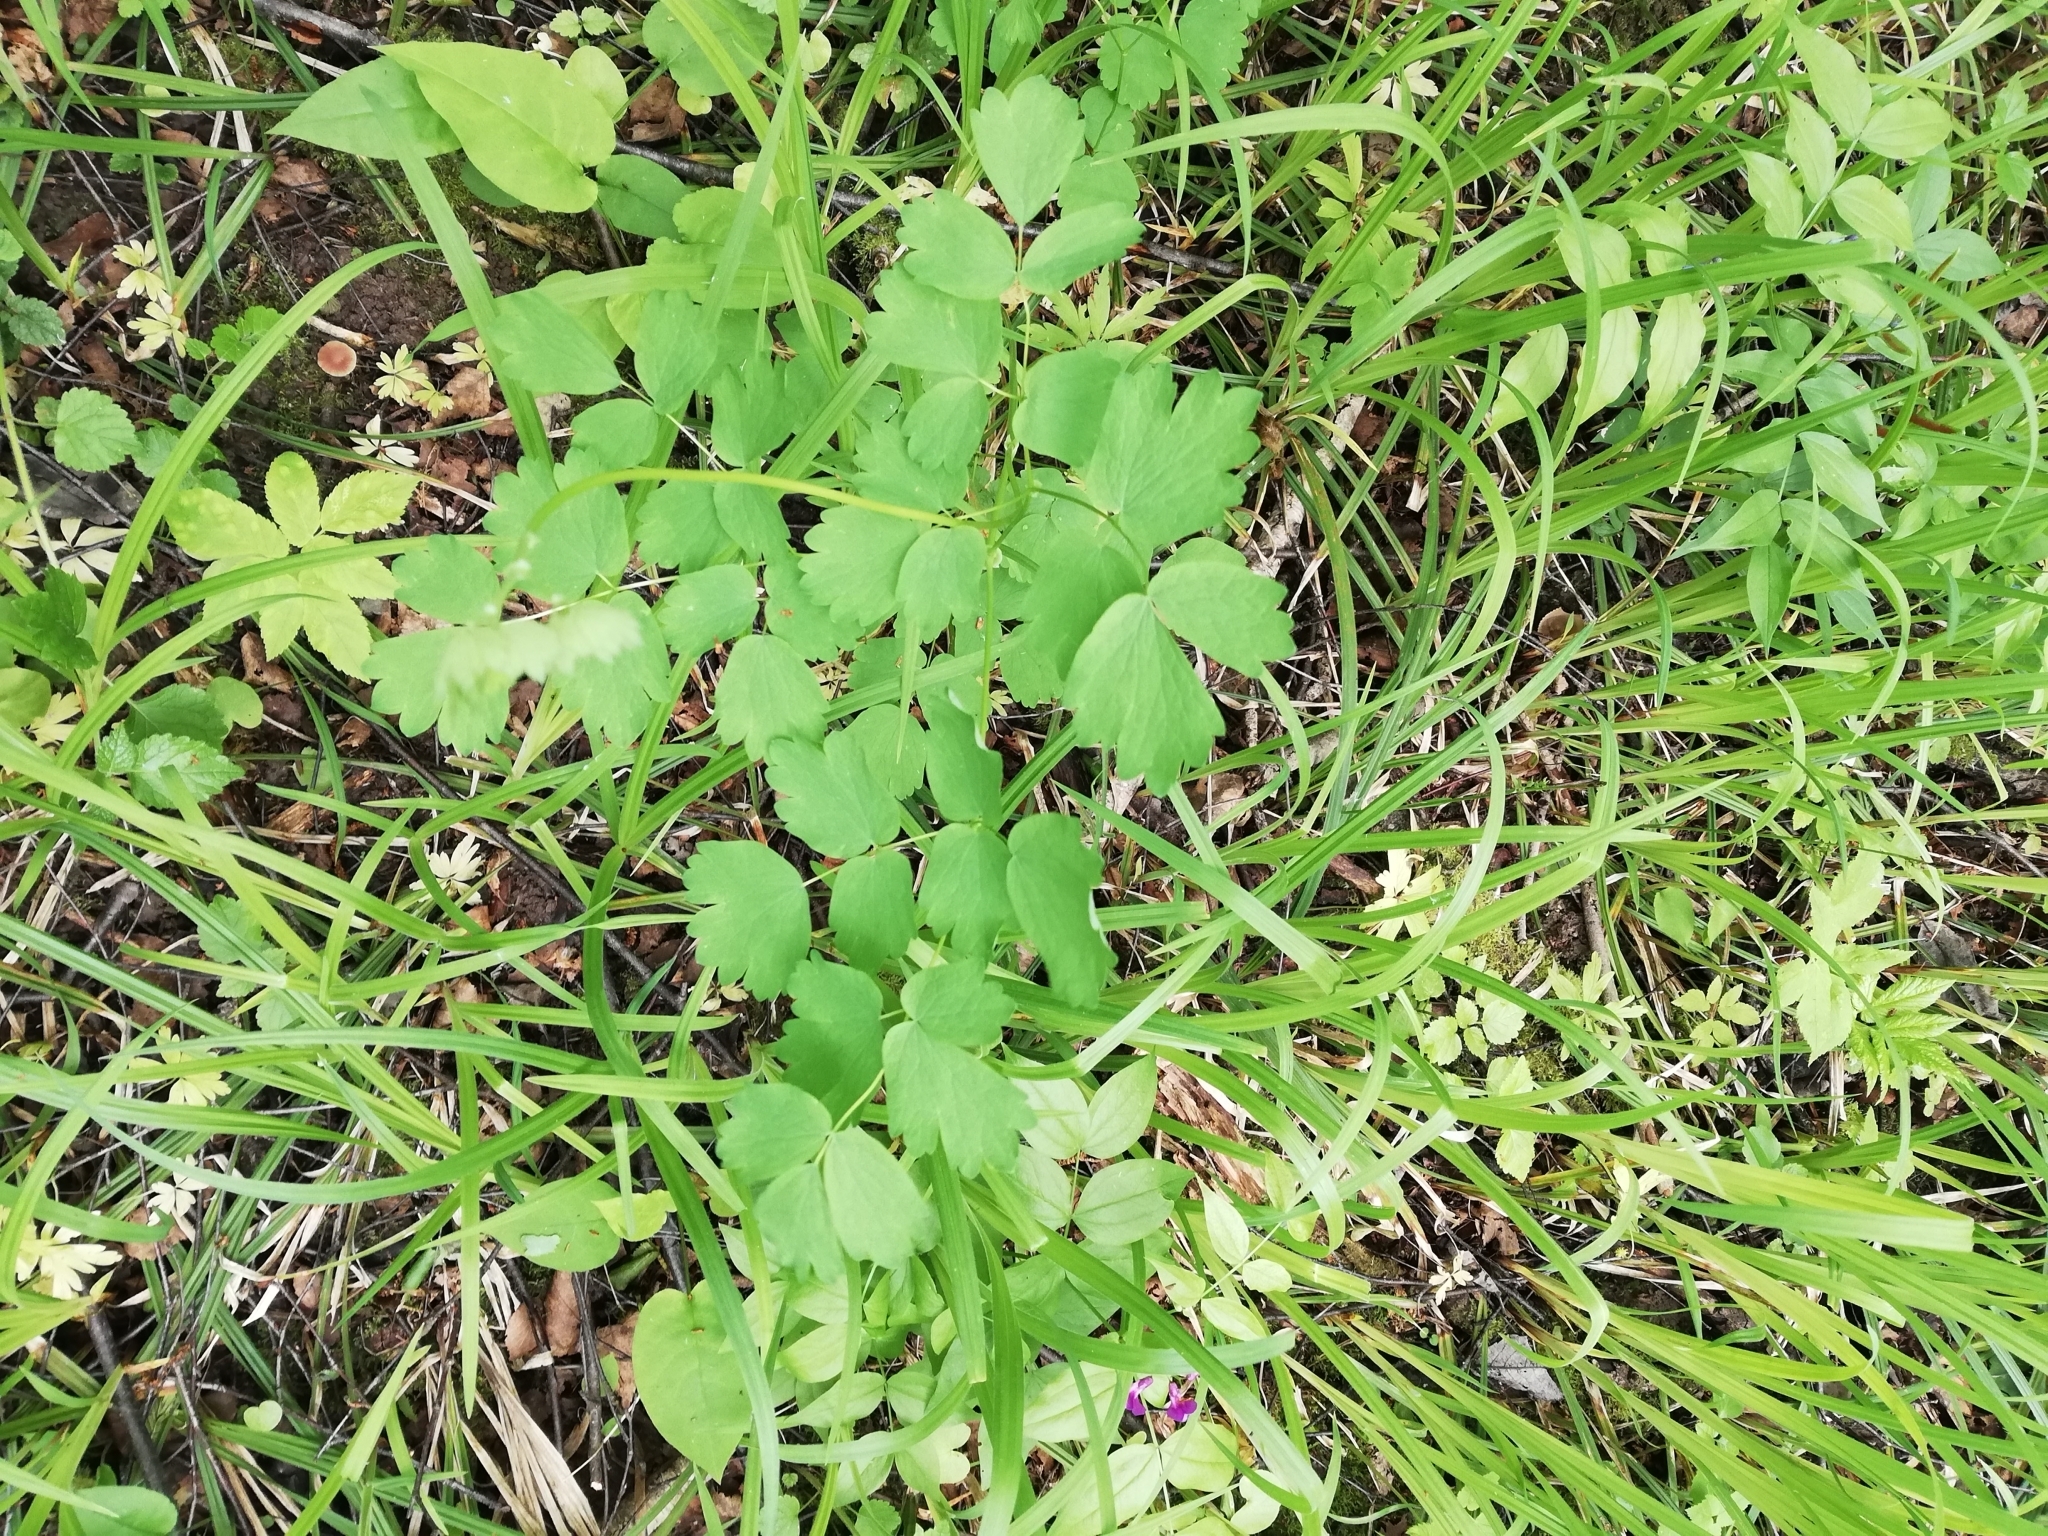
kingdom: Plantae
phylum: Tracheophyta
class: Magnoliopsida
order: Ranunculales
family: Ranunculaceae
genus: Thalictrum
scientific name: Thalictrum aquilegiifolium
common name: French meadow-rue
